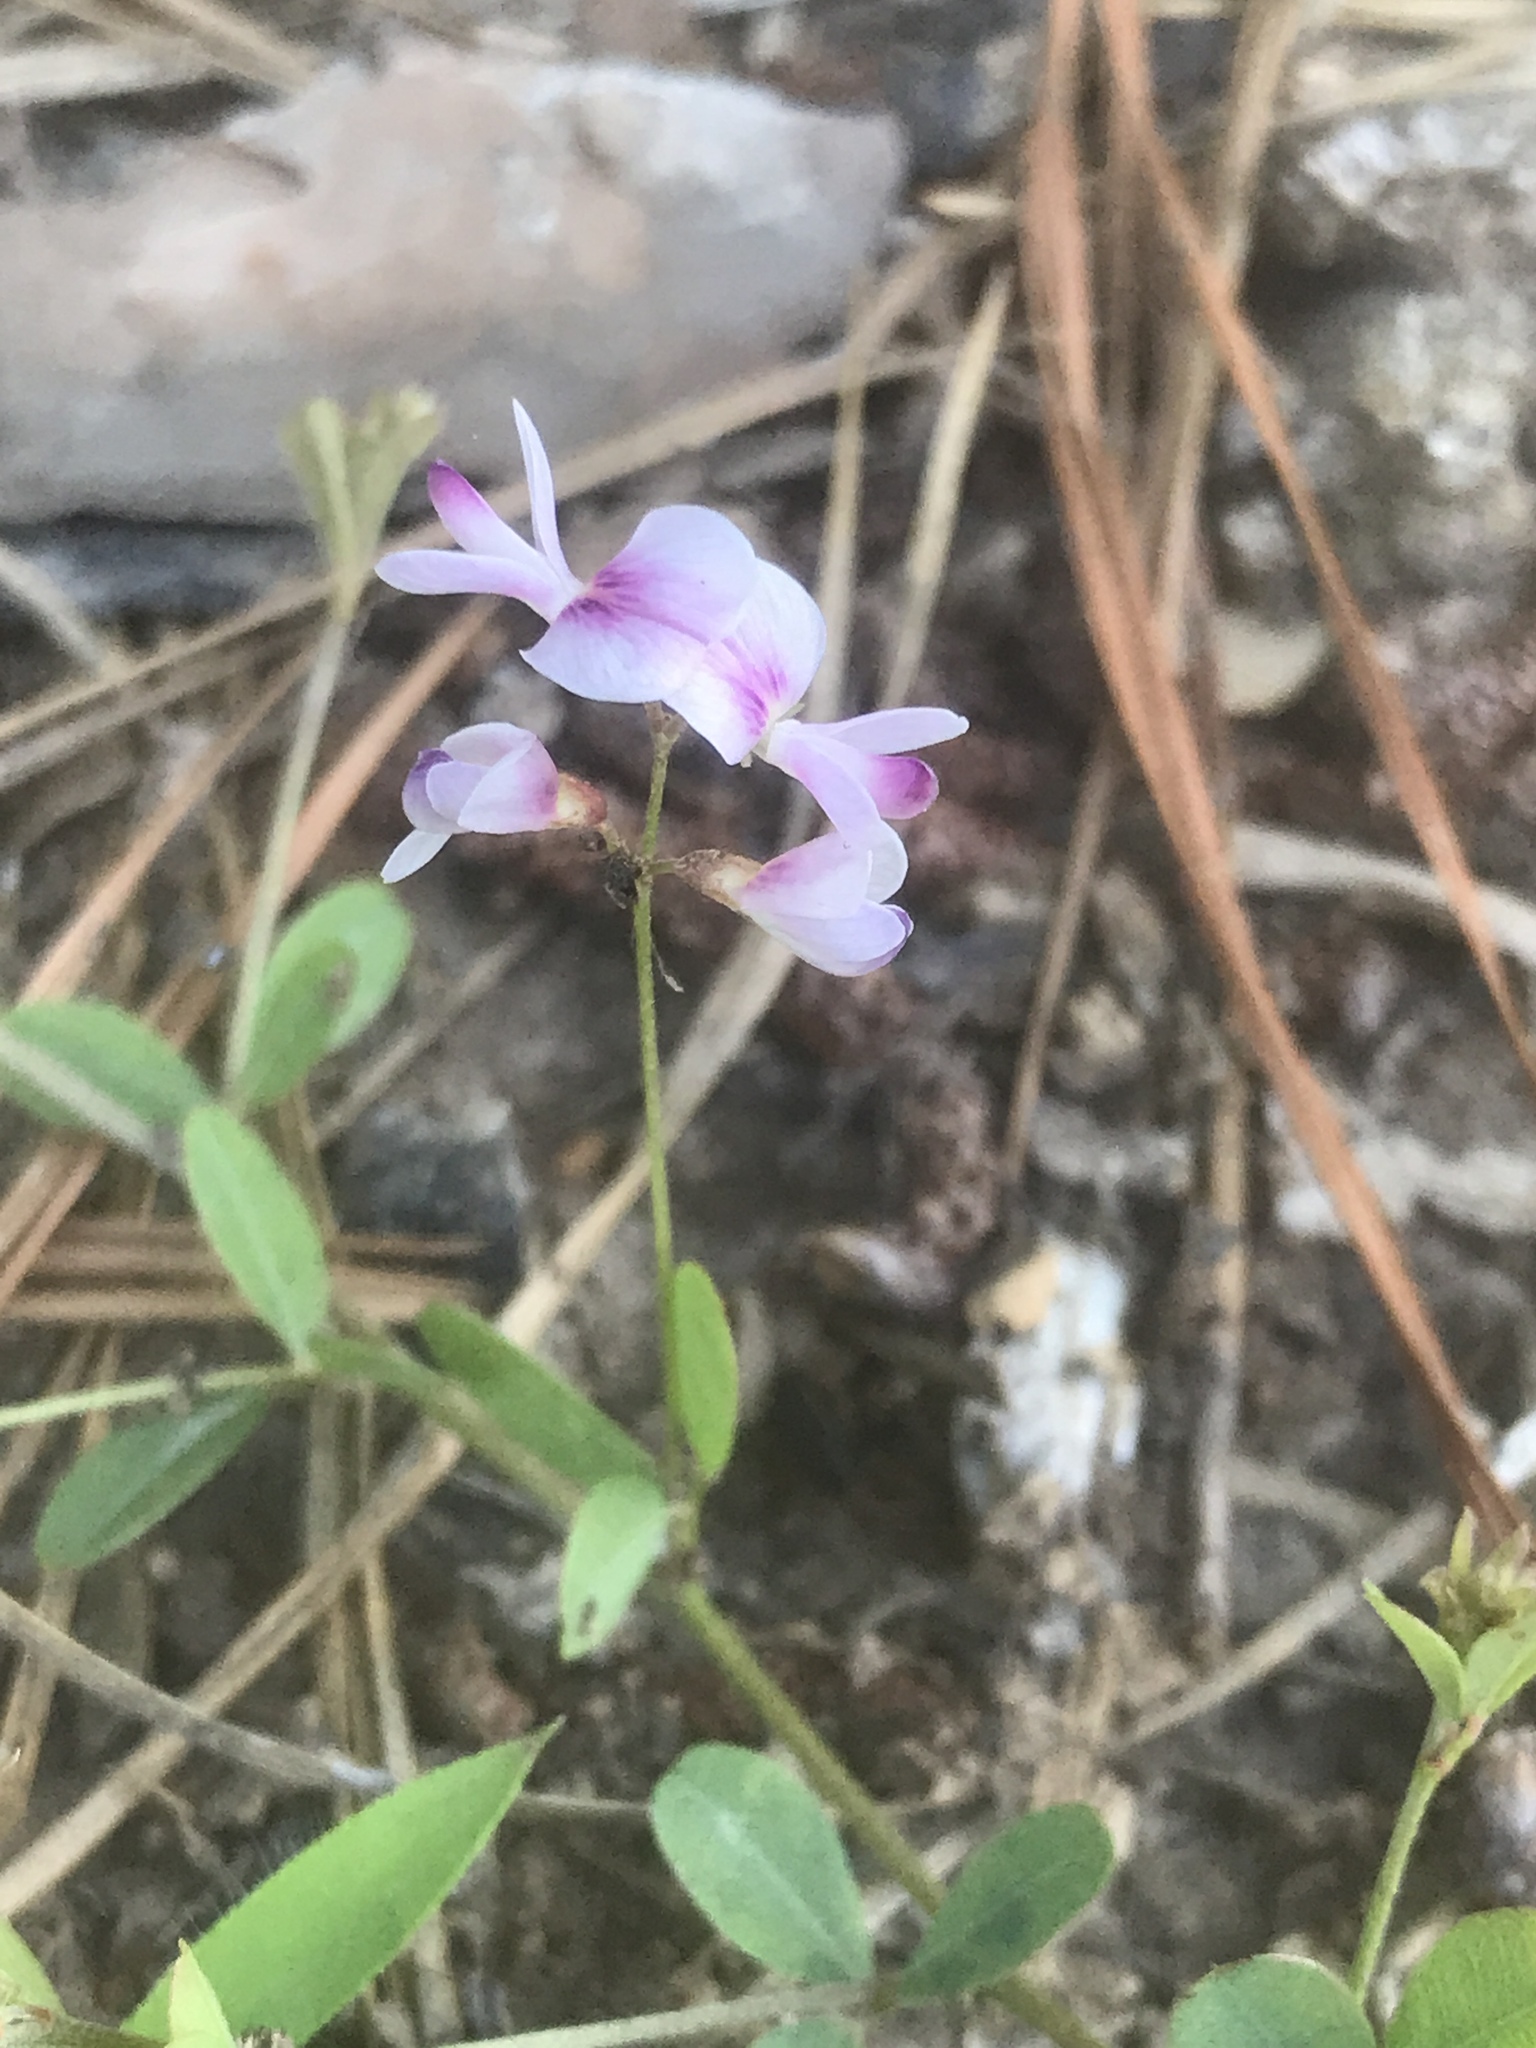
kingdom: Plantae
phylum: Tracheophyta
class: Magnoliopsida
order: Fabales
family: Fabaceae
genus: Lespedeza
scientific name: Lespedeza repens
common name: Creeping bush-clover
